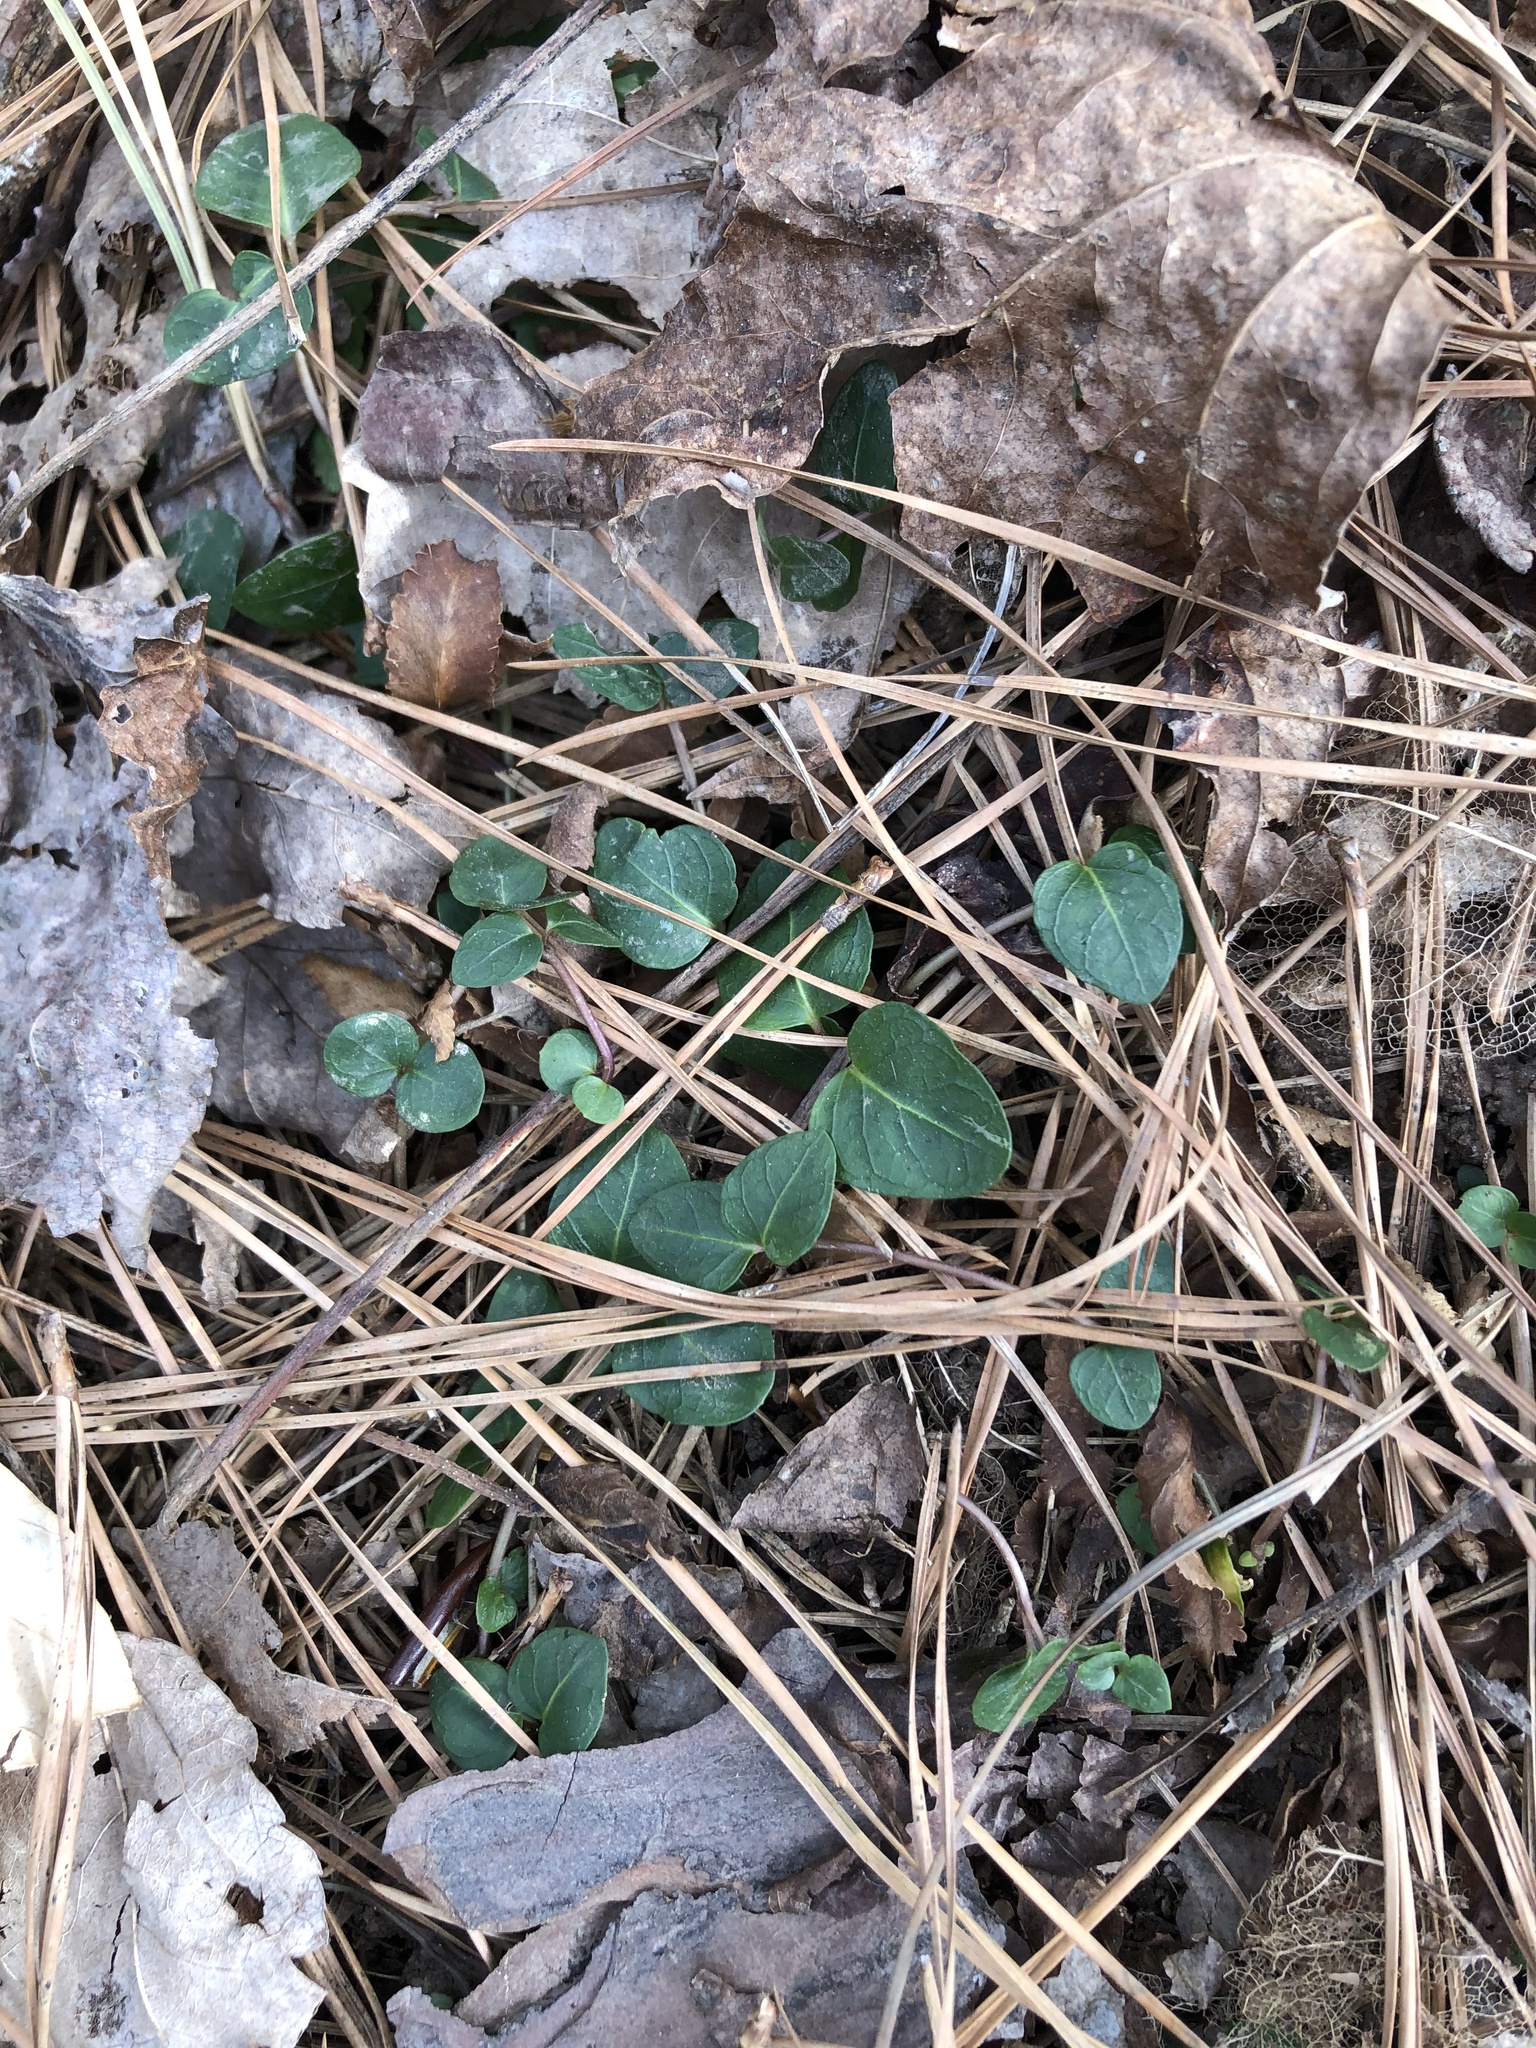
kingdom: Plantae
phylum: Tracheophyta
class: Magnoliopsida
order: Gentianales
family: Rubiaceae
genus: Mitchella
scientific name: Mitchella repens
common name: Partridge-berry
